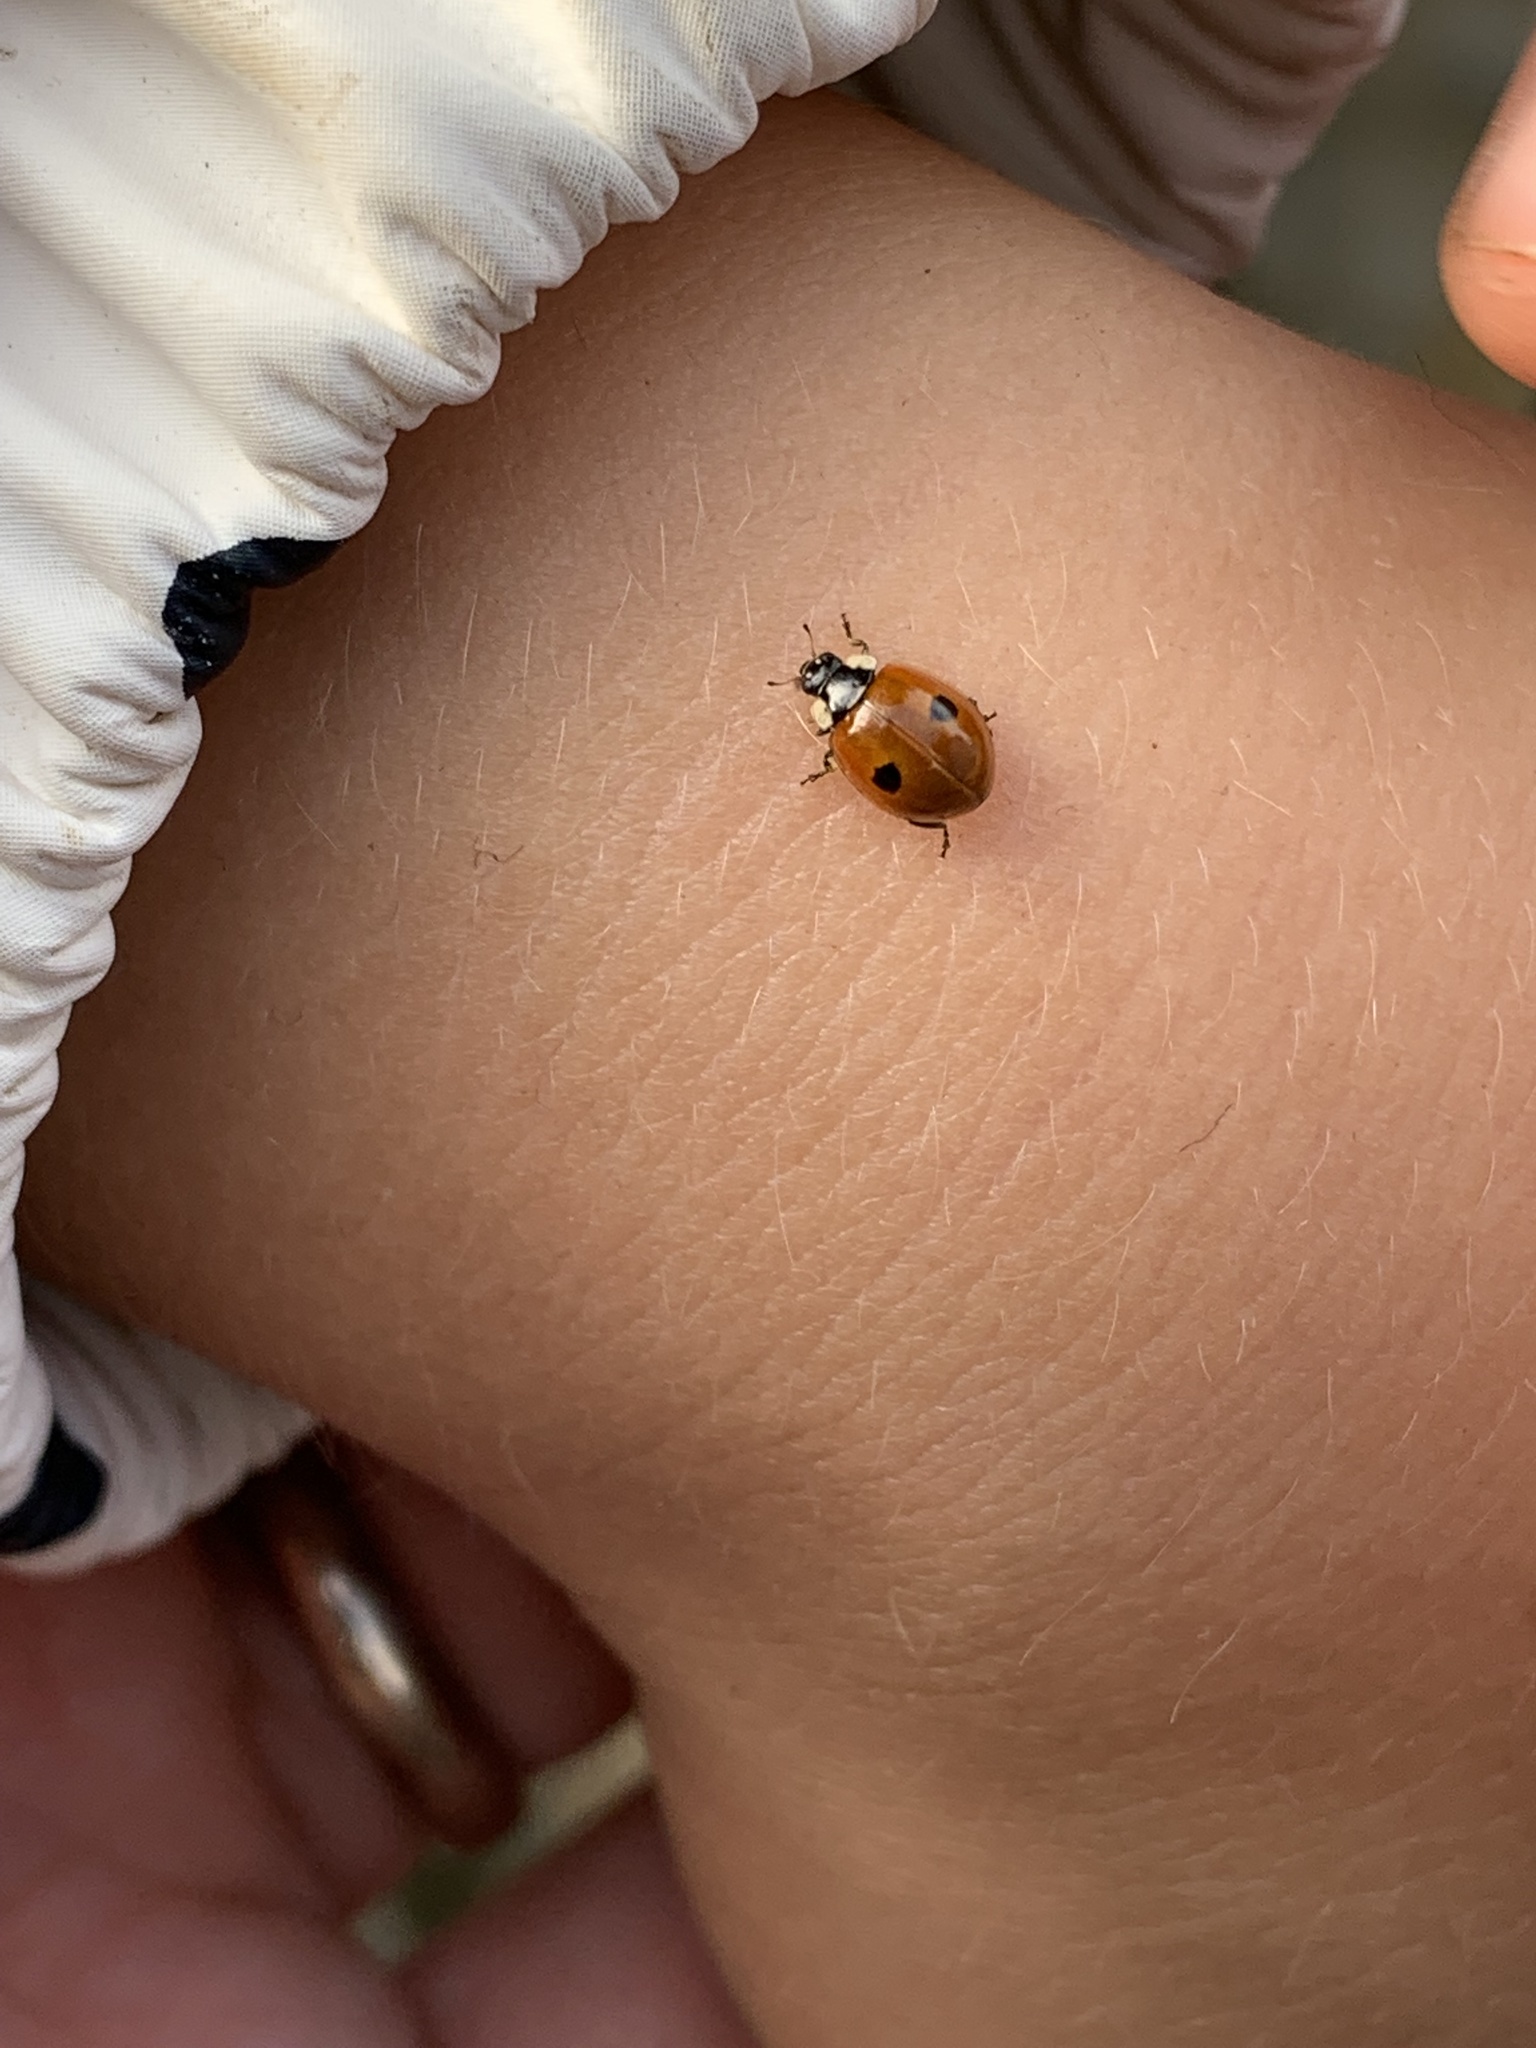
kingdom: Animalia
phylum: Arthropoda
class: Insecta
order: Coleoptera
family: Coccinellidae
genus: Adalia
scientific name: Adalia bipunctata
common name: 2-spot ladybird
